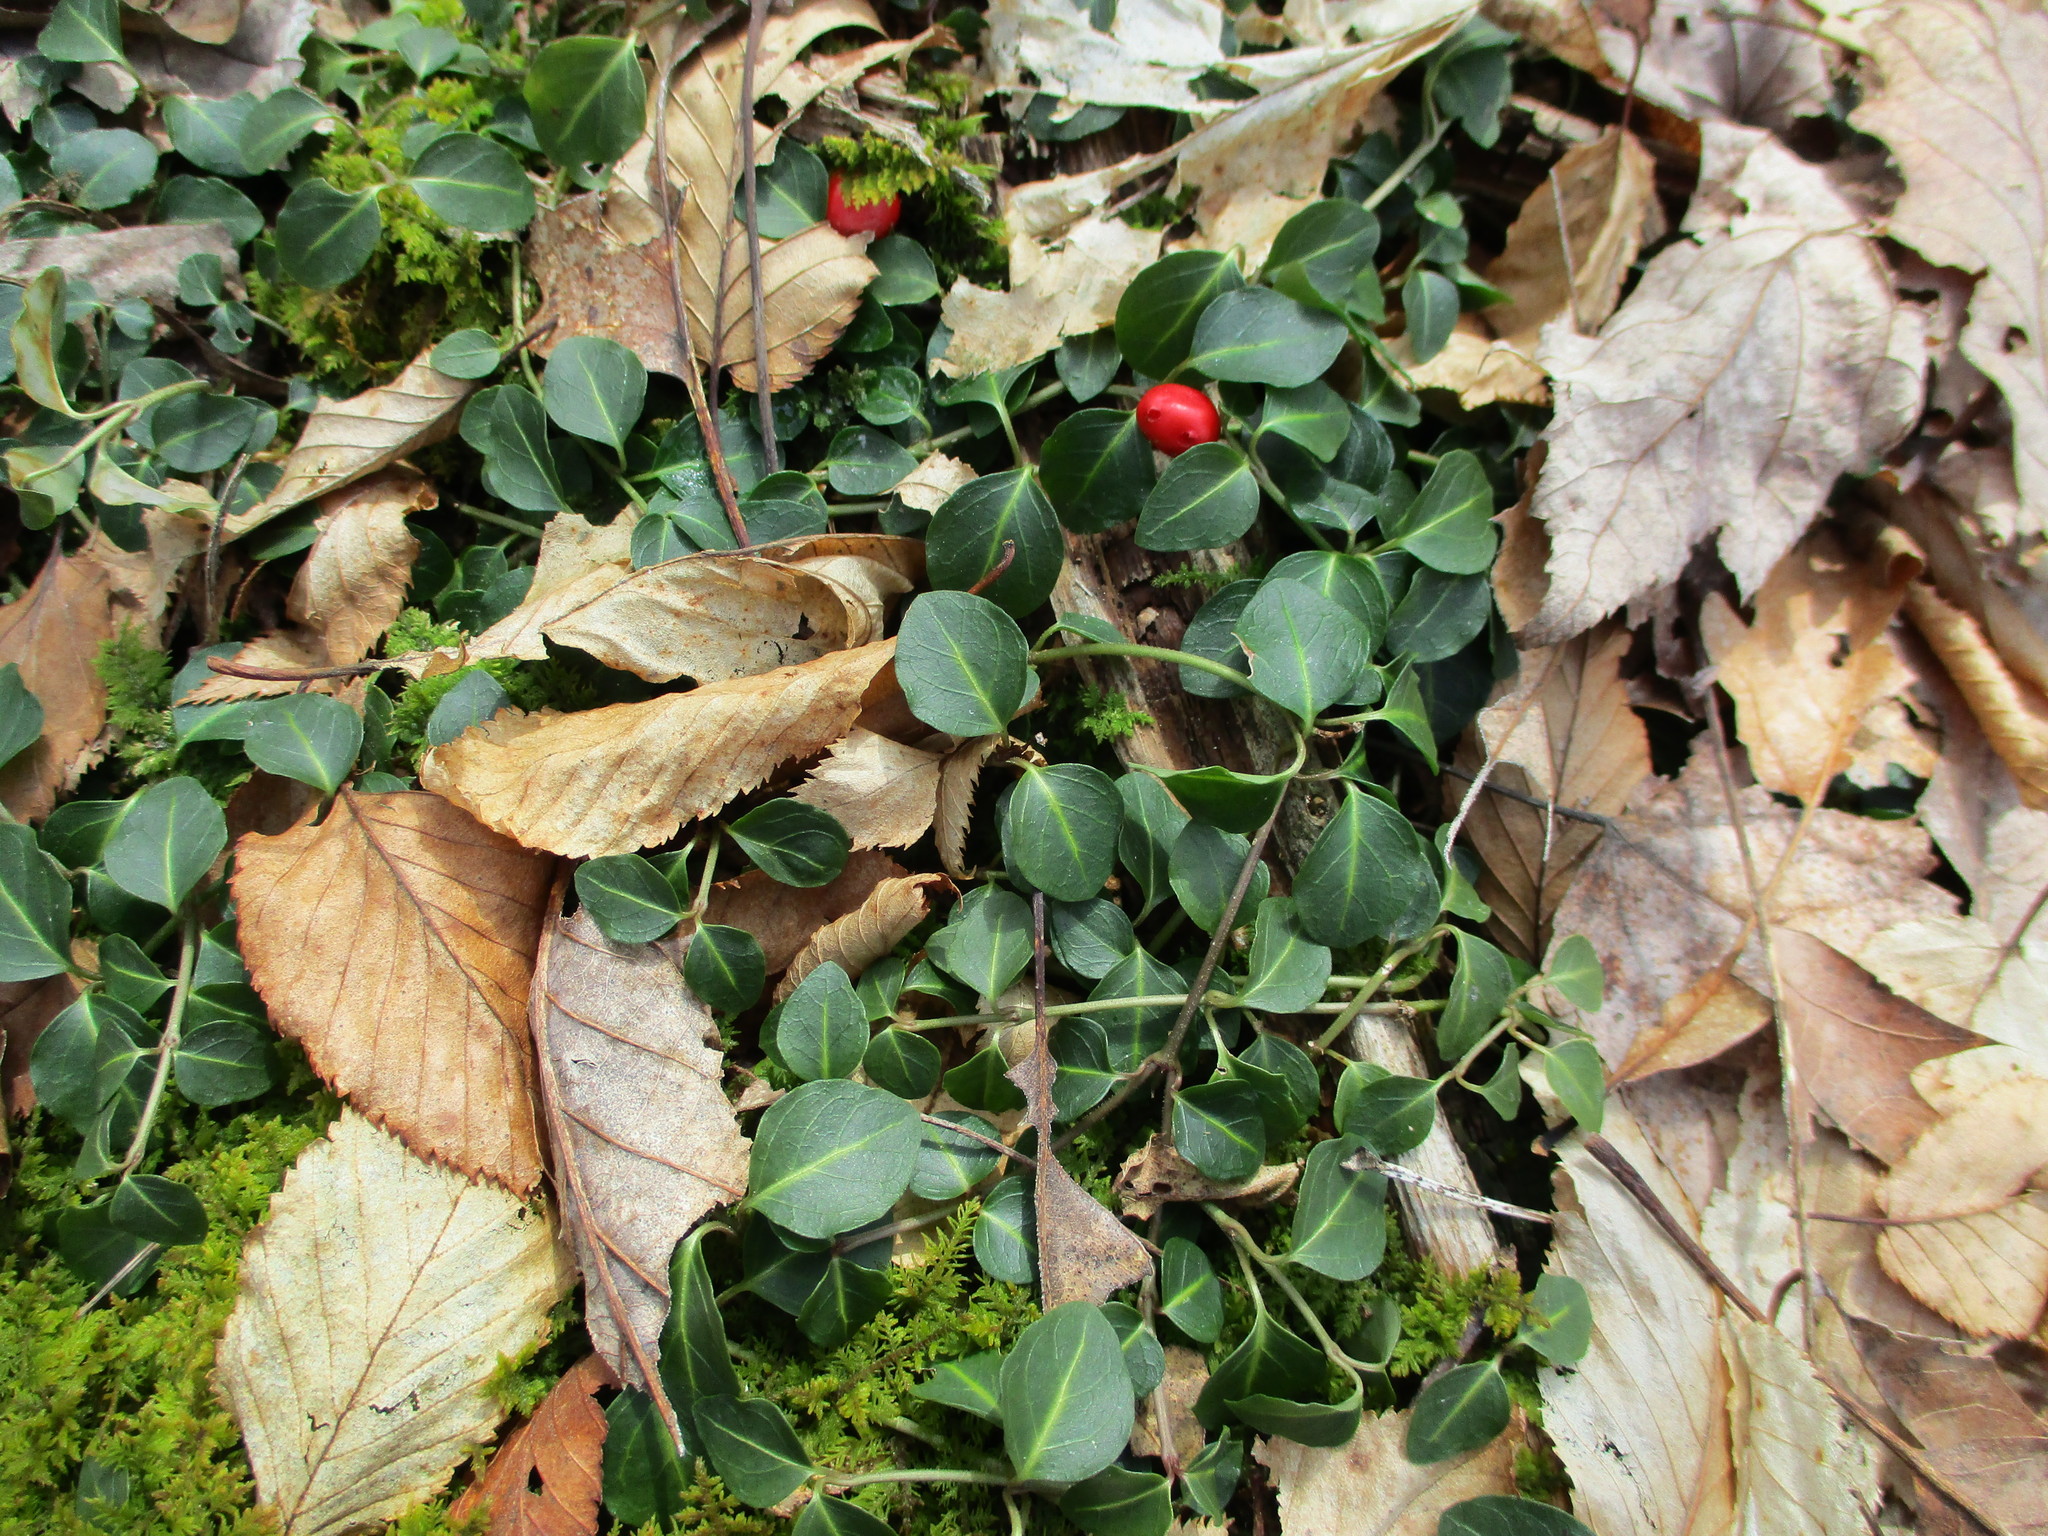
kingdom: Plantae
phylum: Tracheophyta
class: Magnoliopsida
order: Gentianales
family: Rubiaceae
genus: Mitchella
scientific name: Mitchella repens
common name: Partridge-berry
